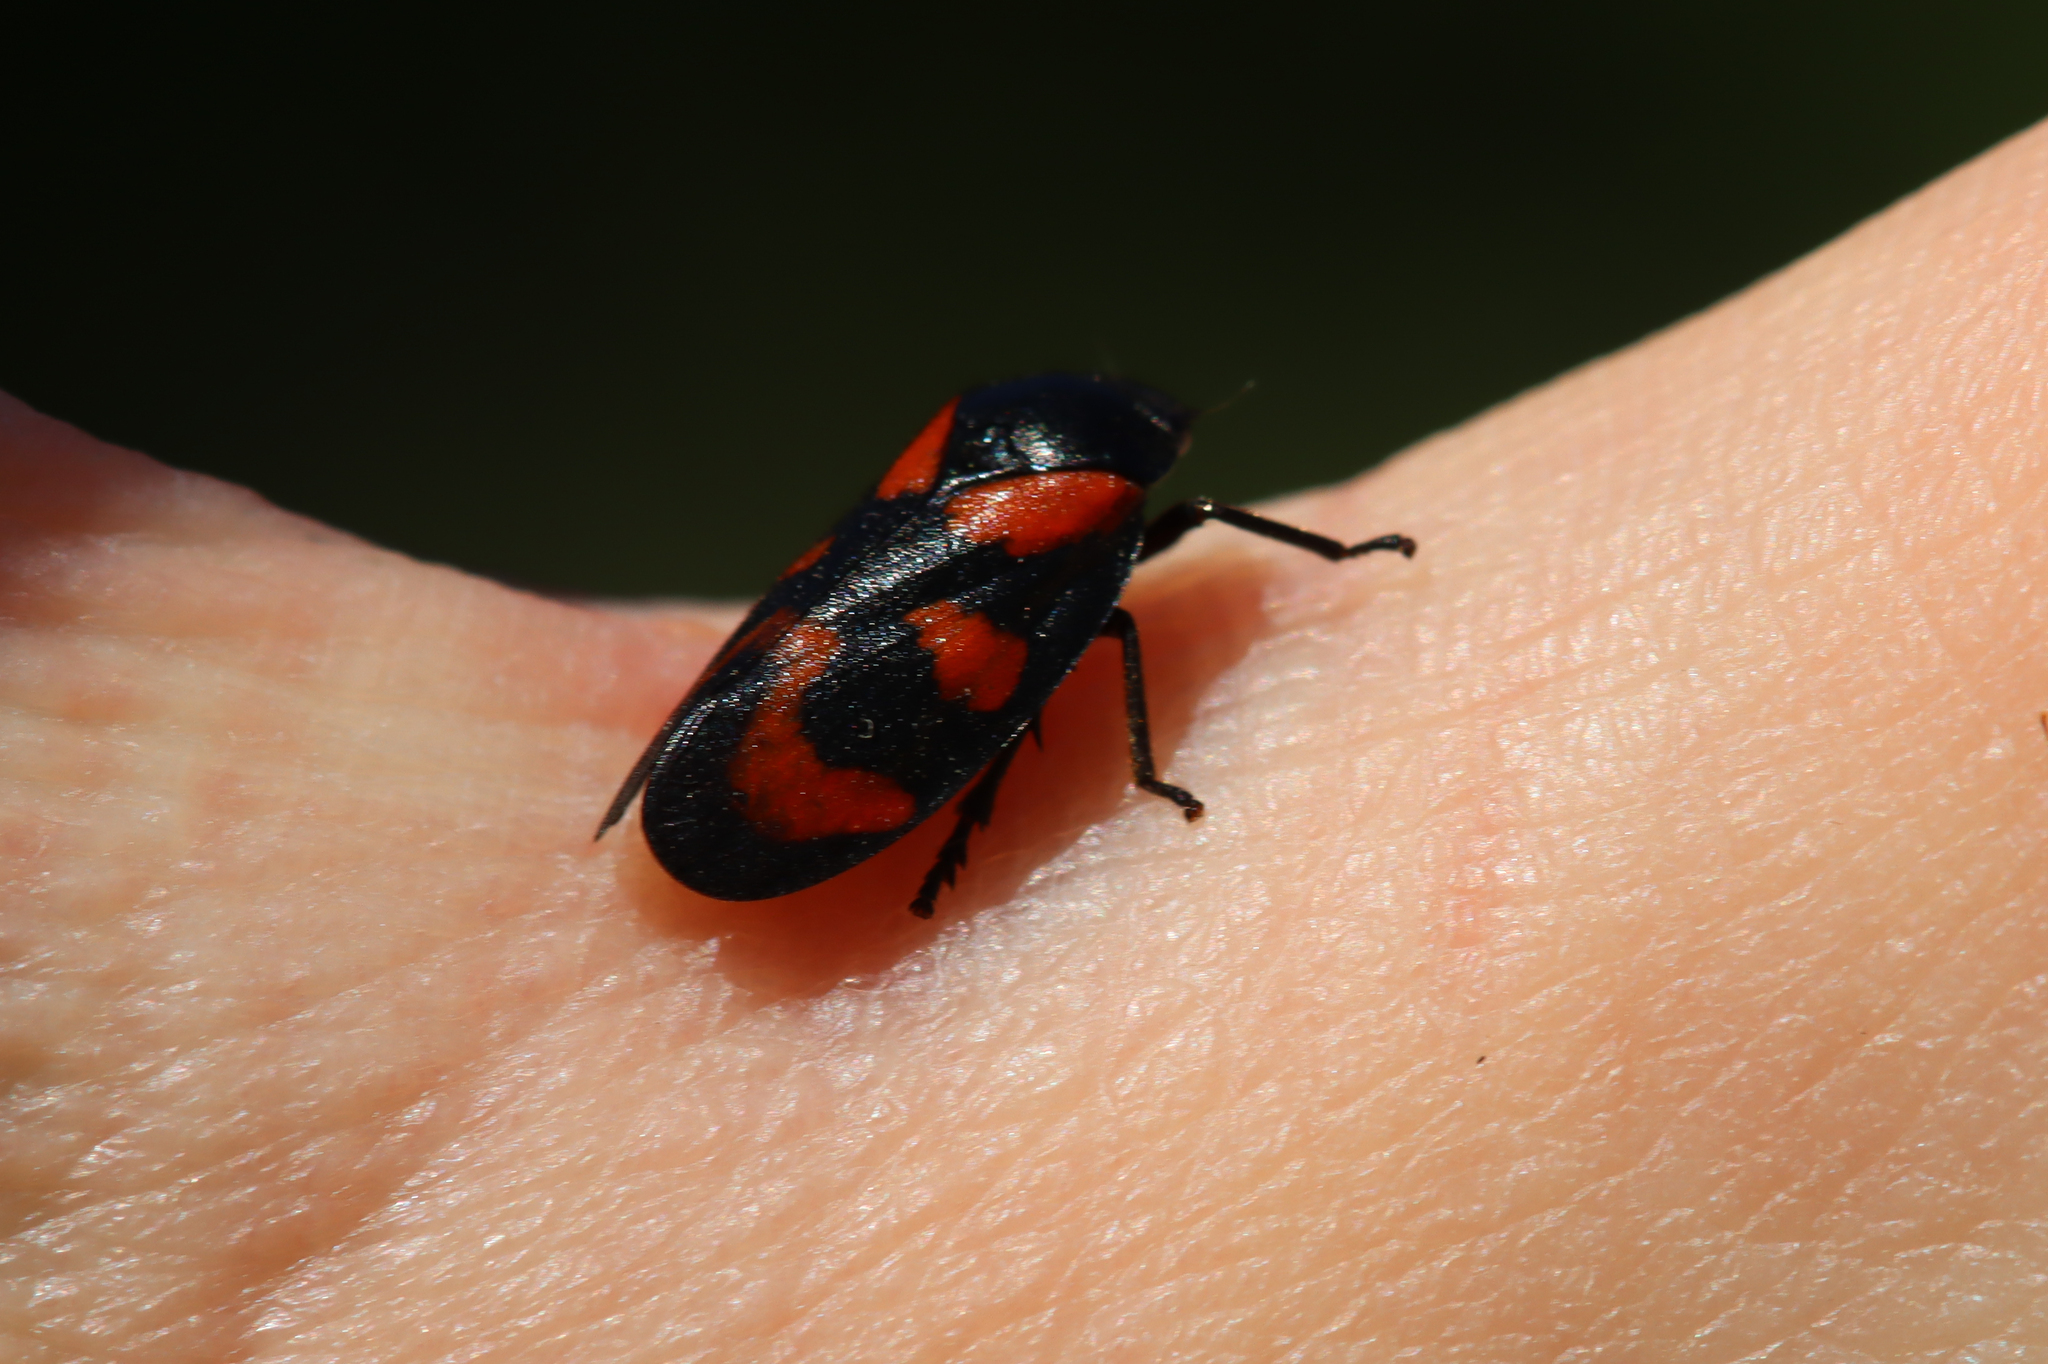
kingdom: Animalia
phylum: Arthropoda
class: Insecta
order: Hemiptera
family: Cercopidae
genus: Cercopis
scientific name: Cercopis vulnerata
